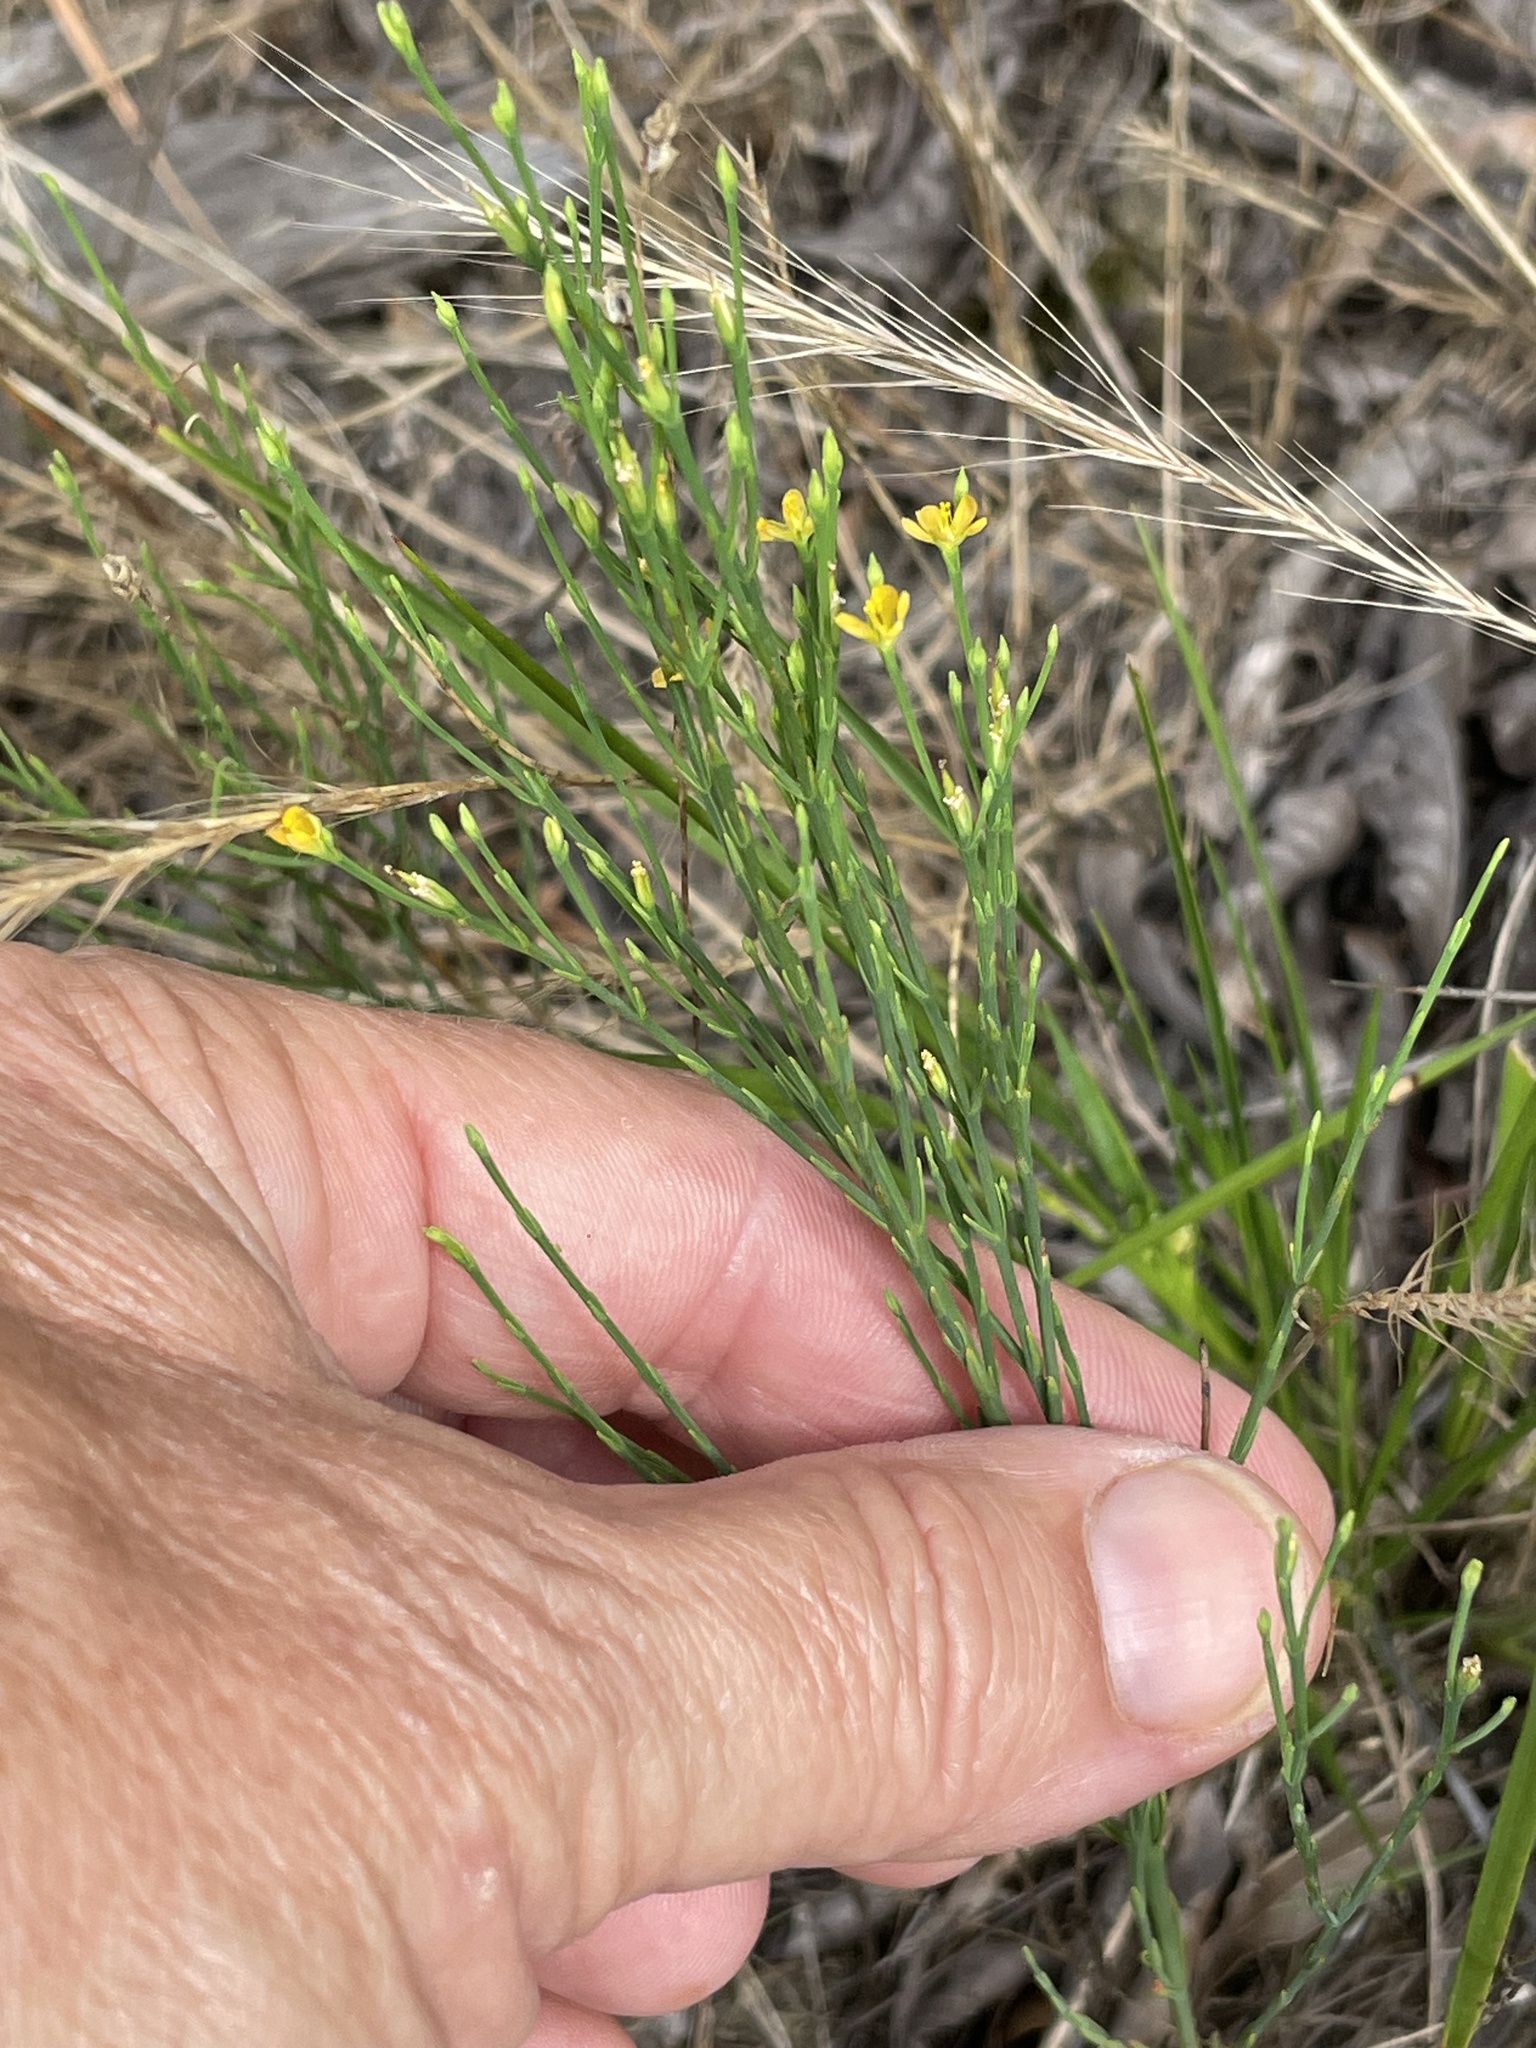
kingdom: Plantae
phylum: Tracheophyta
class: Magnoliopsida
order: Malpighiales
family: Hypericaceae
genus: Hypericum
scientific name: Hypericum gentianoides
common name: Gentian-leaved st. john's-wort
